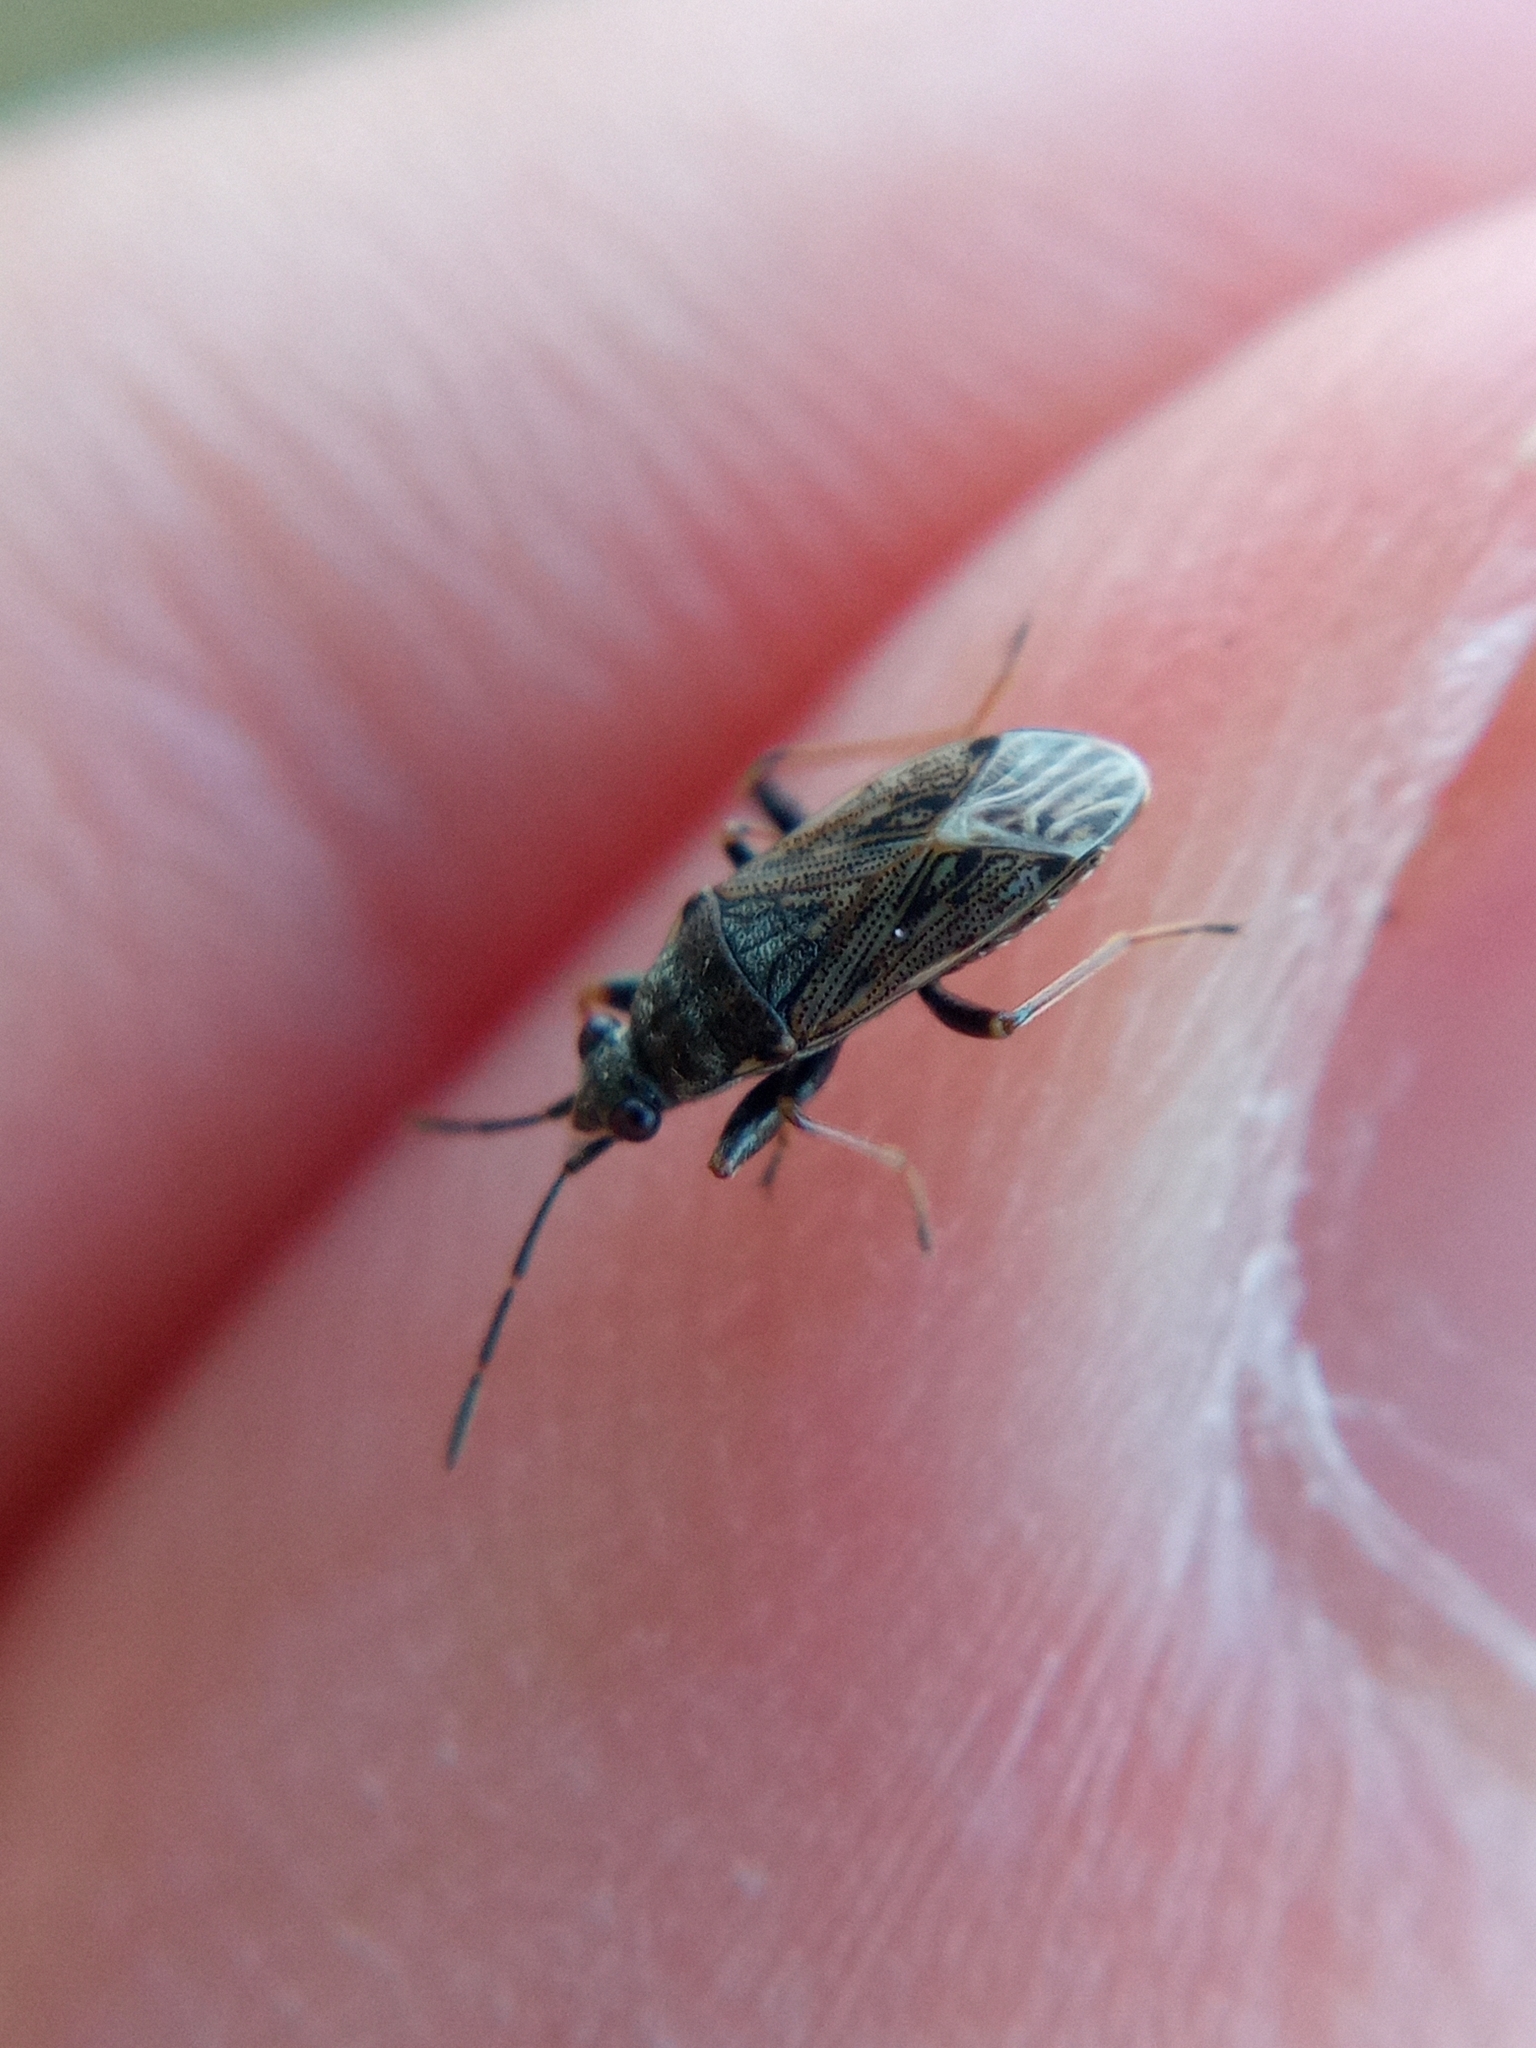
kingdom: Animalia
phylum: Arthropoda
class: Insecta
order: Hemiptera
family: Rhyparochromidae
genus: Peritrechus
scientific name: Peritrechus gracilicornis
